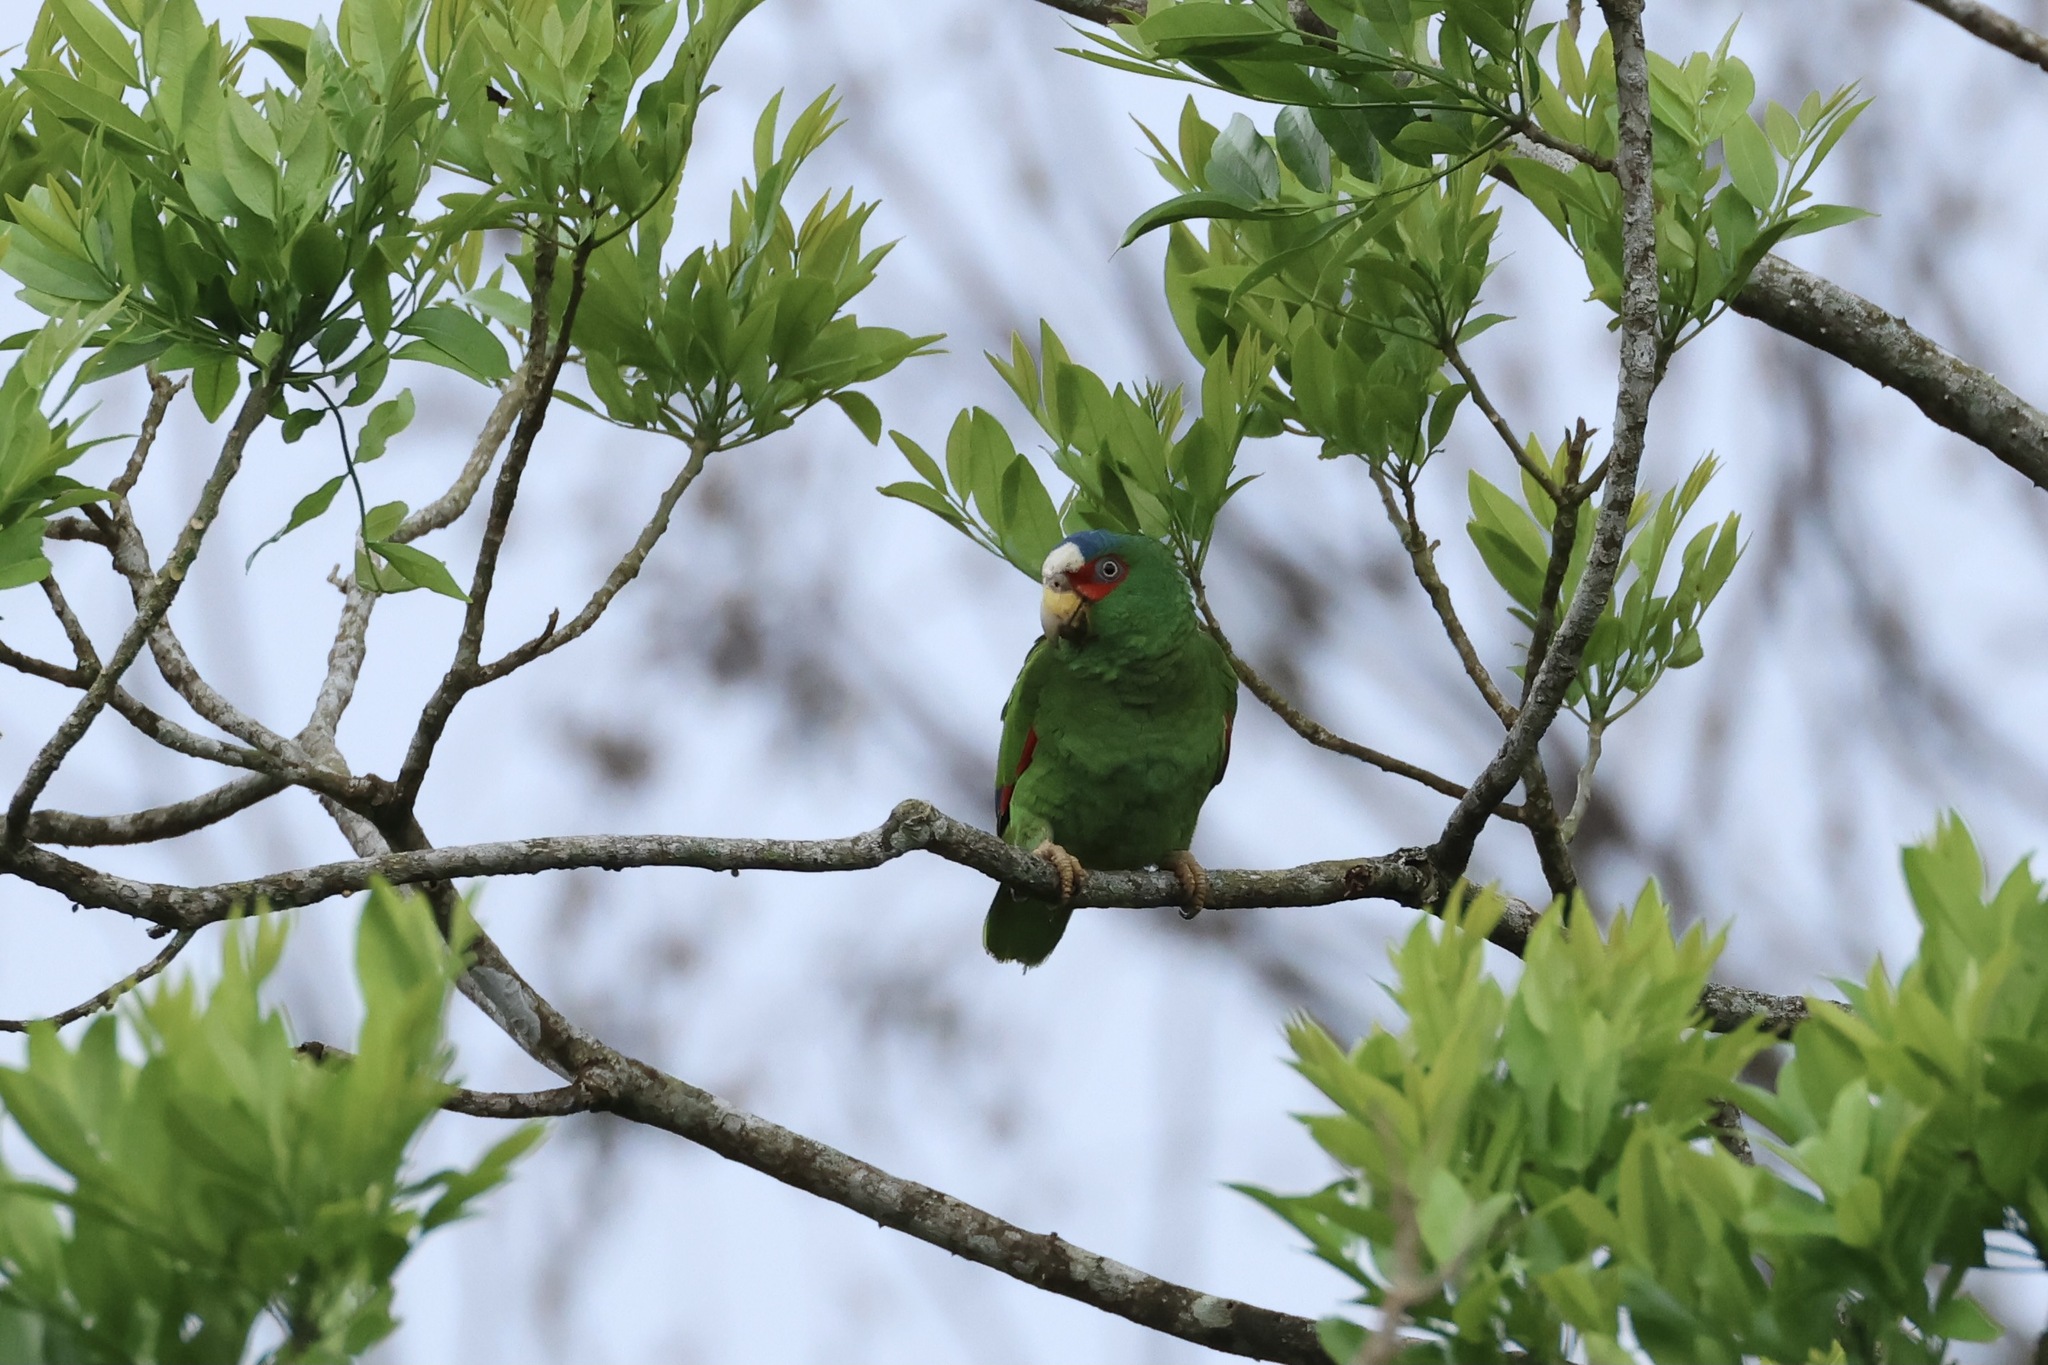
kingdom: Animalia
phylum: Chordata
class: Aves
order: Psittaciformes
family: Psittacidae
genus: Amazona
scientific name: Amazona albifrons
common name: White-fronted amazon
